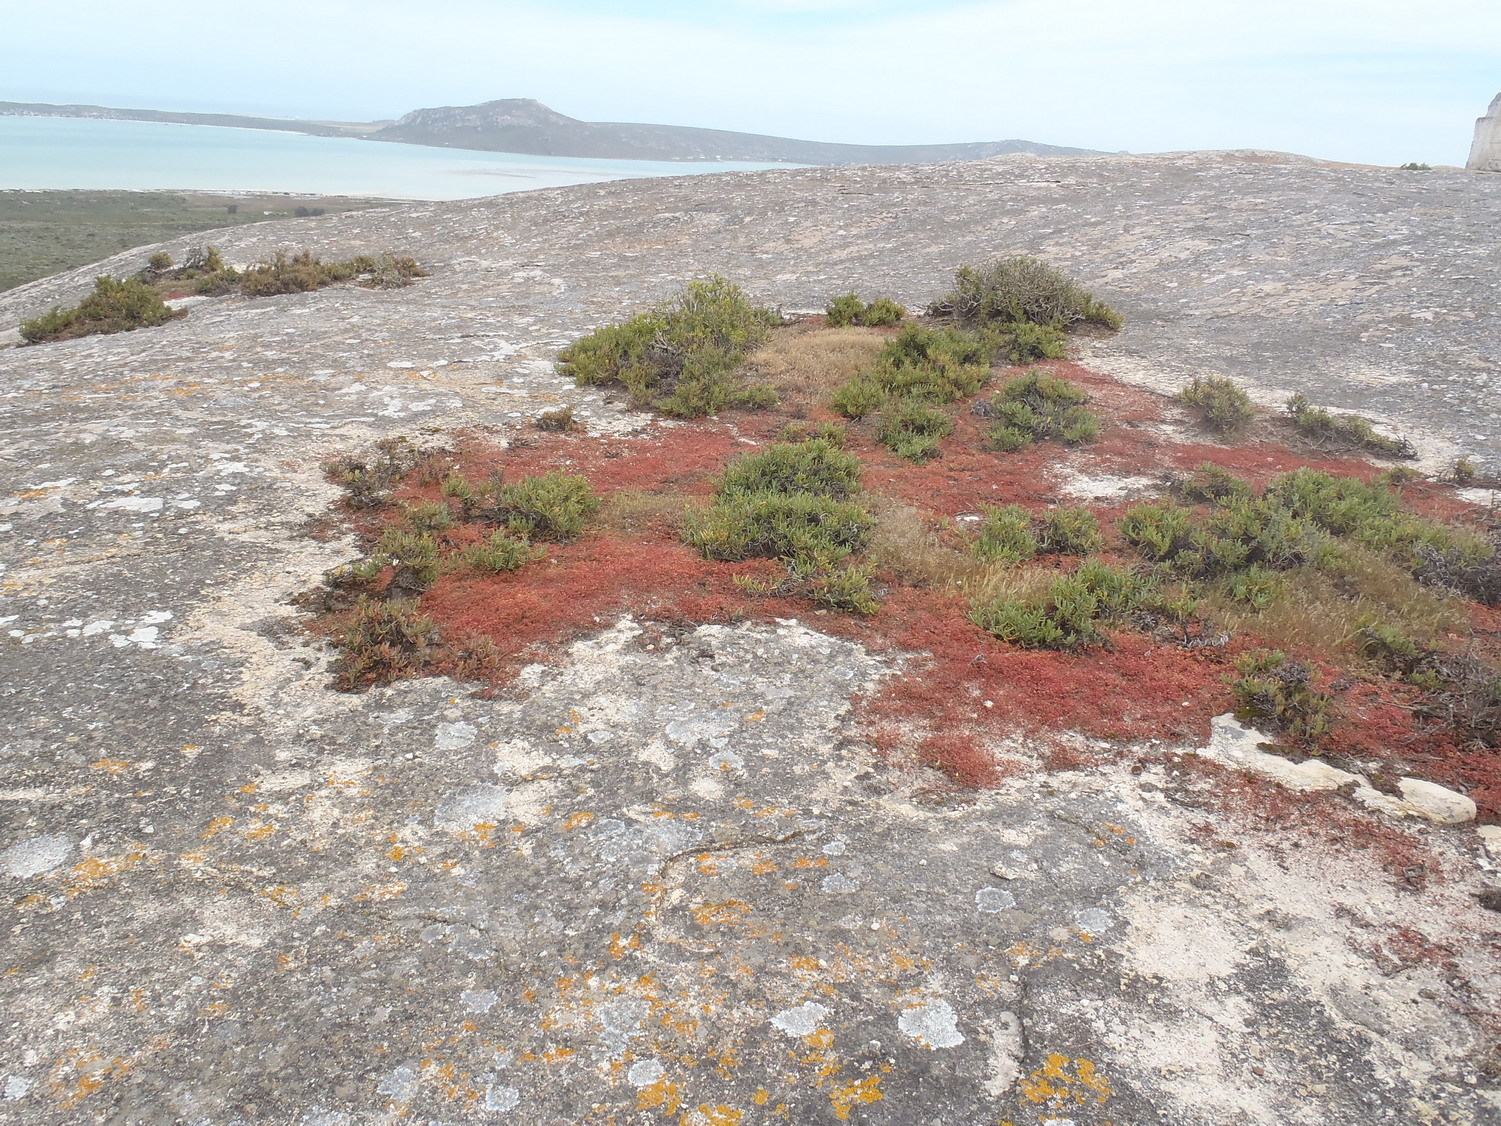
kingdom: Plantae
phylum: Tracheophyta
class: Magnoliopsida
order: Saxifragales
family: Crassulaceae
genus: Crassula
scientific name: Crassula thunbergiana
